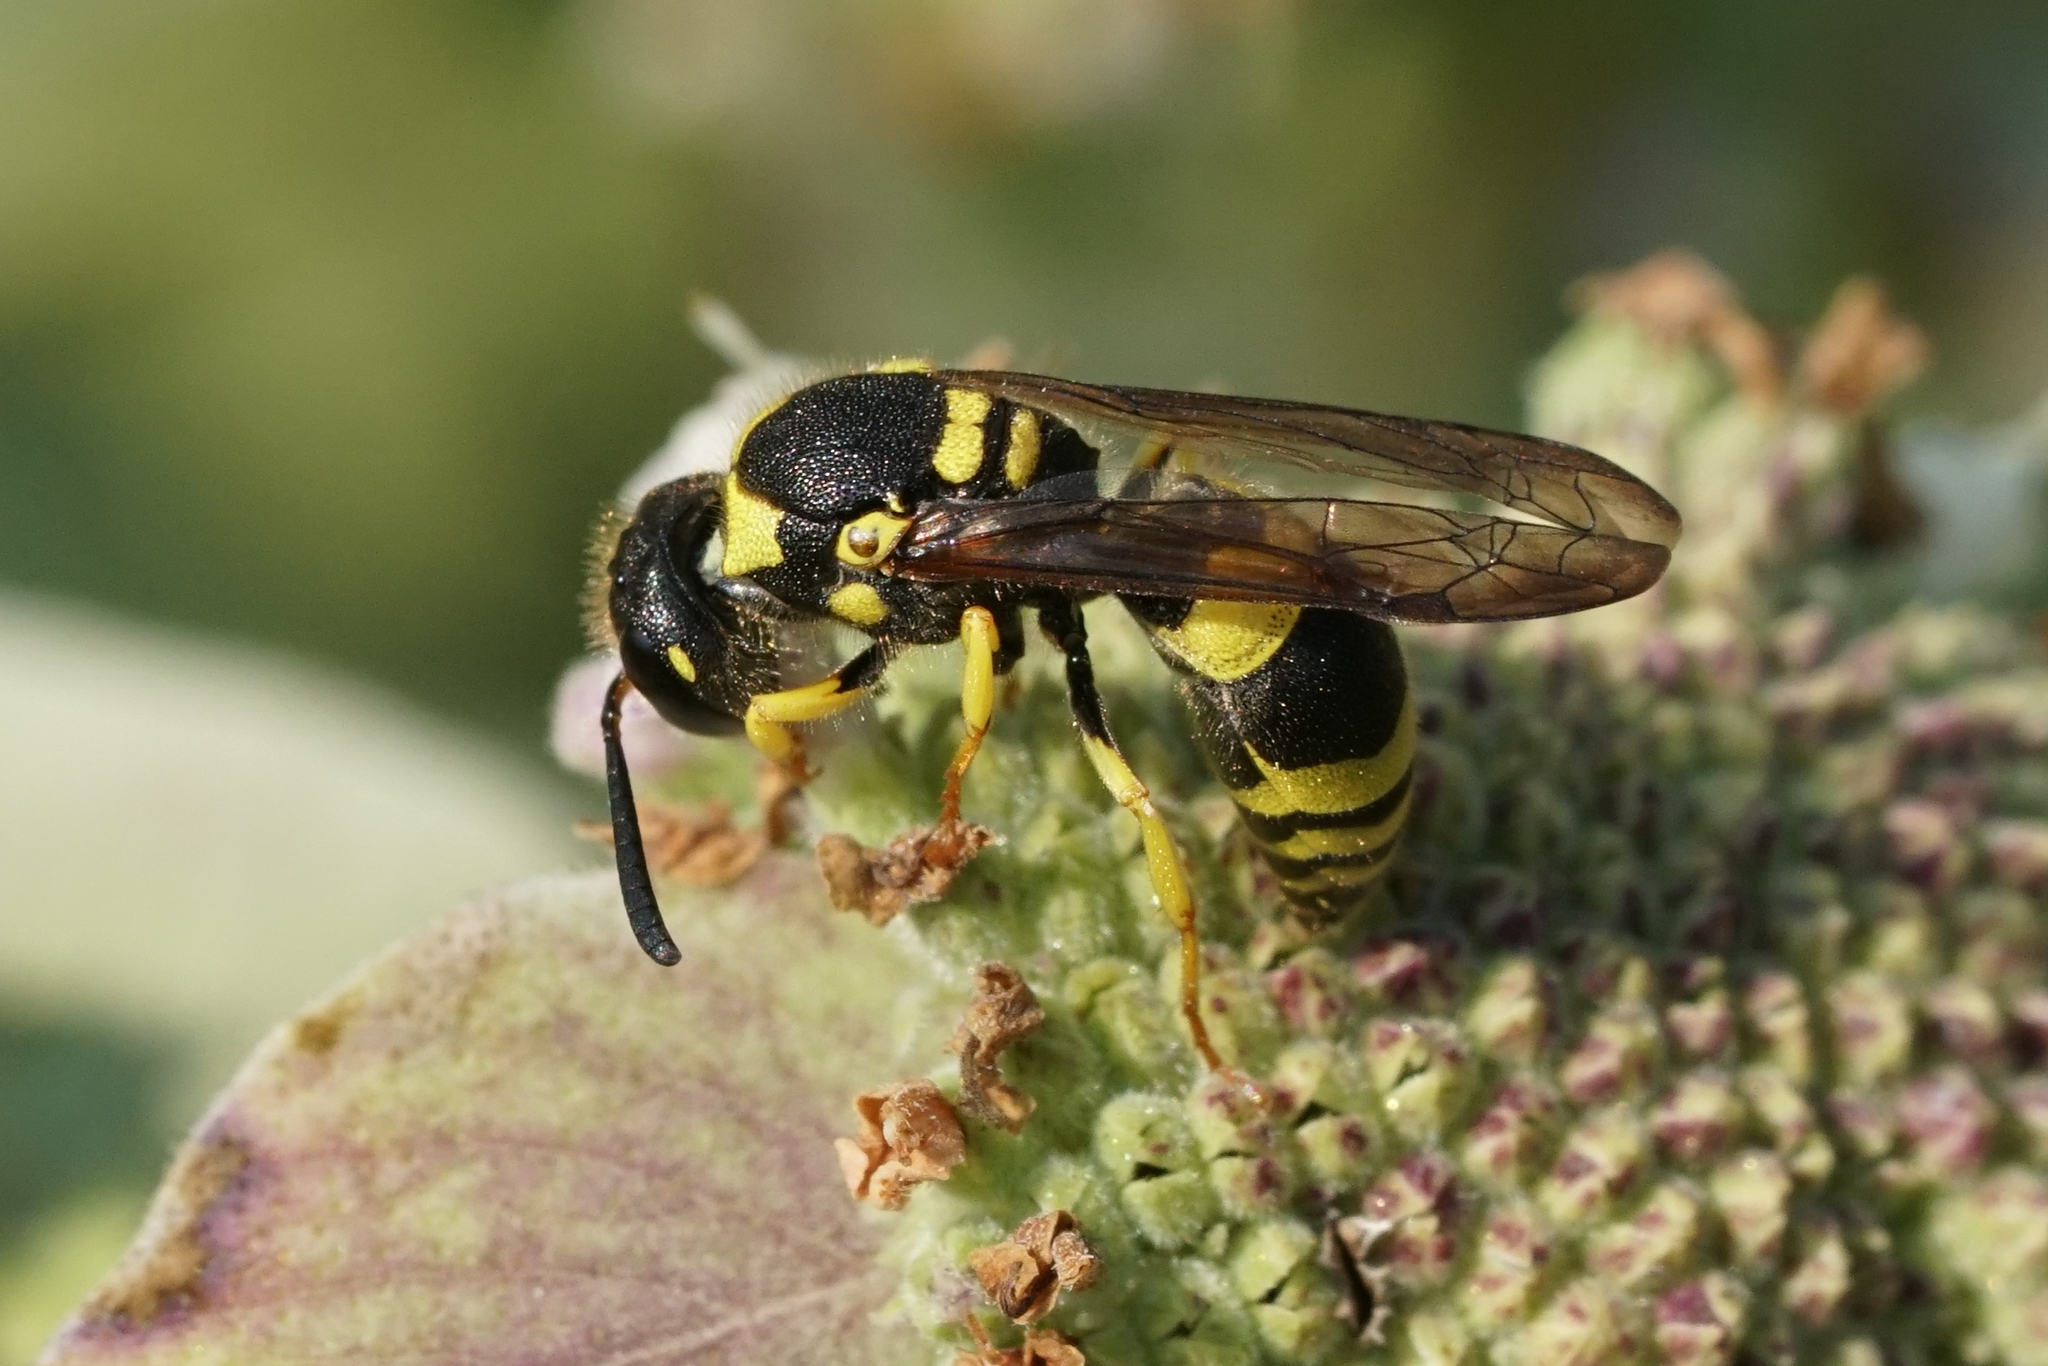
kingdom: Animalia
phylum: Arthropoda
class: Insecta
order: Hymenoptera
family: Vespidae
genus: Ancistrocerus
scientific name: Ancistrocerus gazella
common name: European tube wasp
